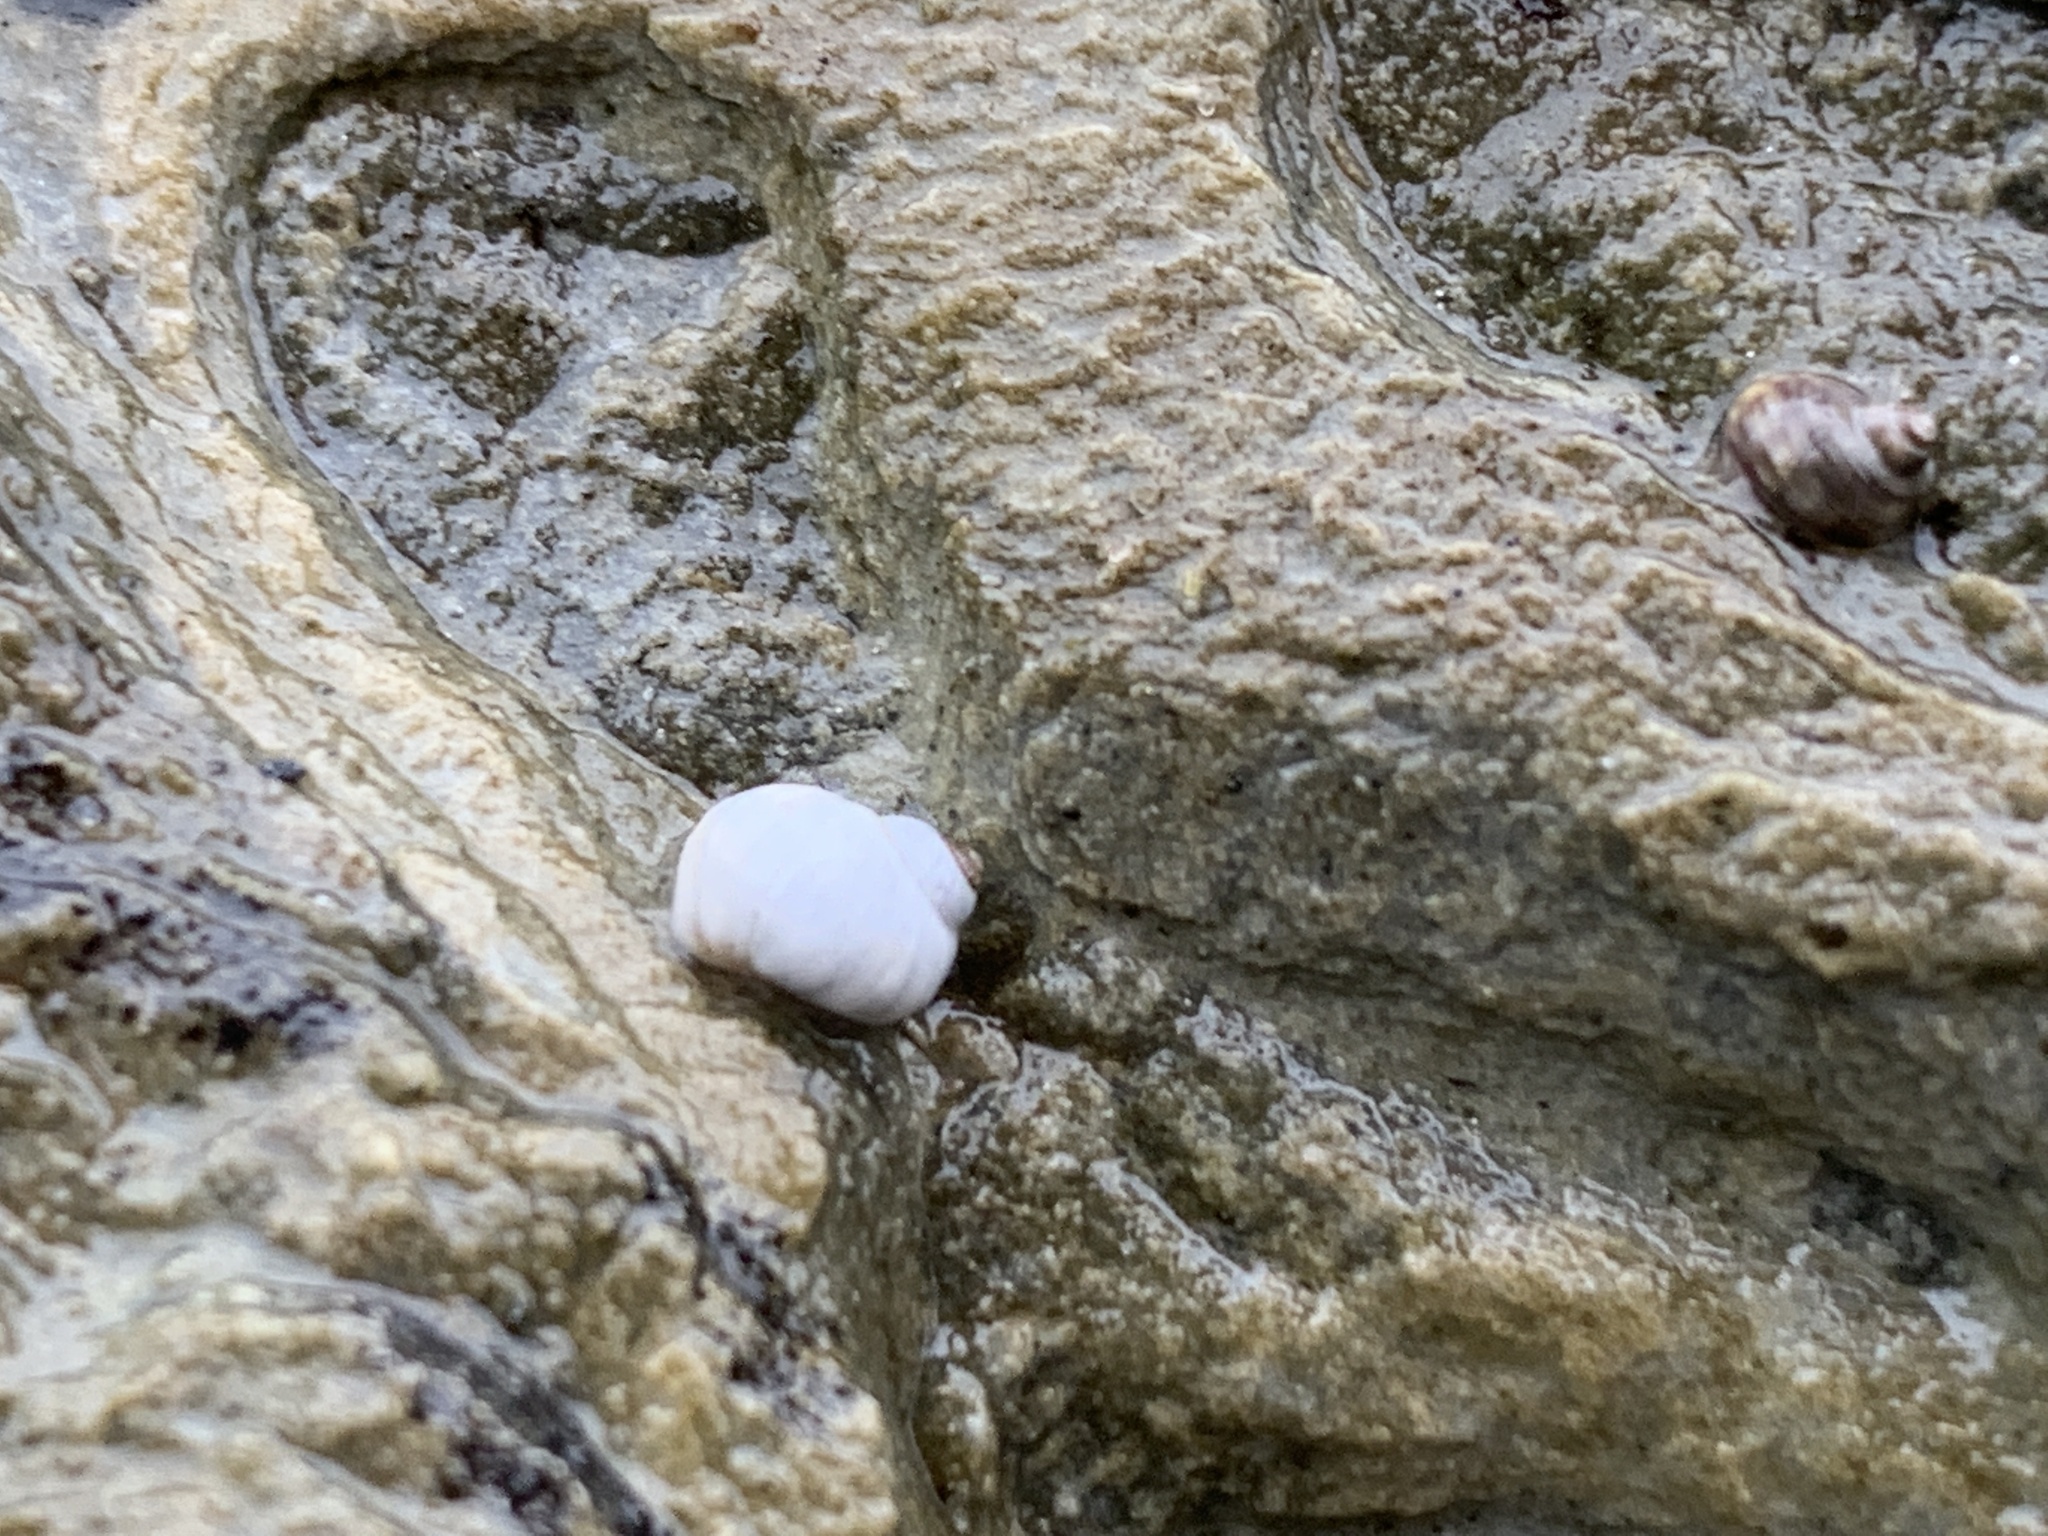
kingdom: Animalia
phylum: Mollusca
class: Gastropoda
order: Littorinimorpha
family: Littorinidae
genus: Littorina
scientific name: Littorina saxatilis
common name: Black-lined periwinkle
